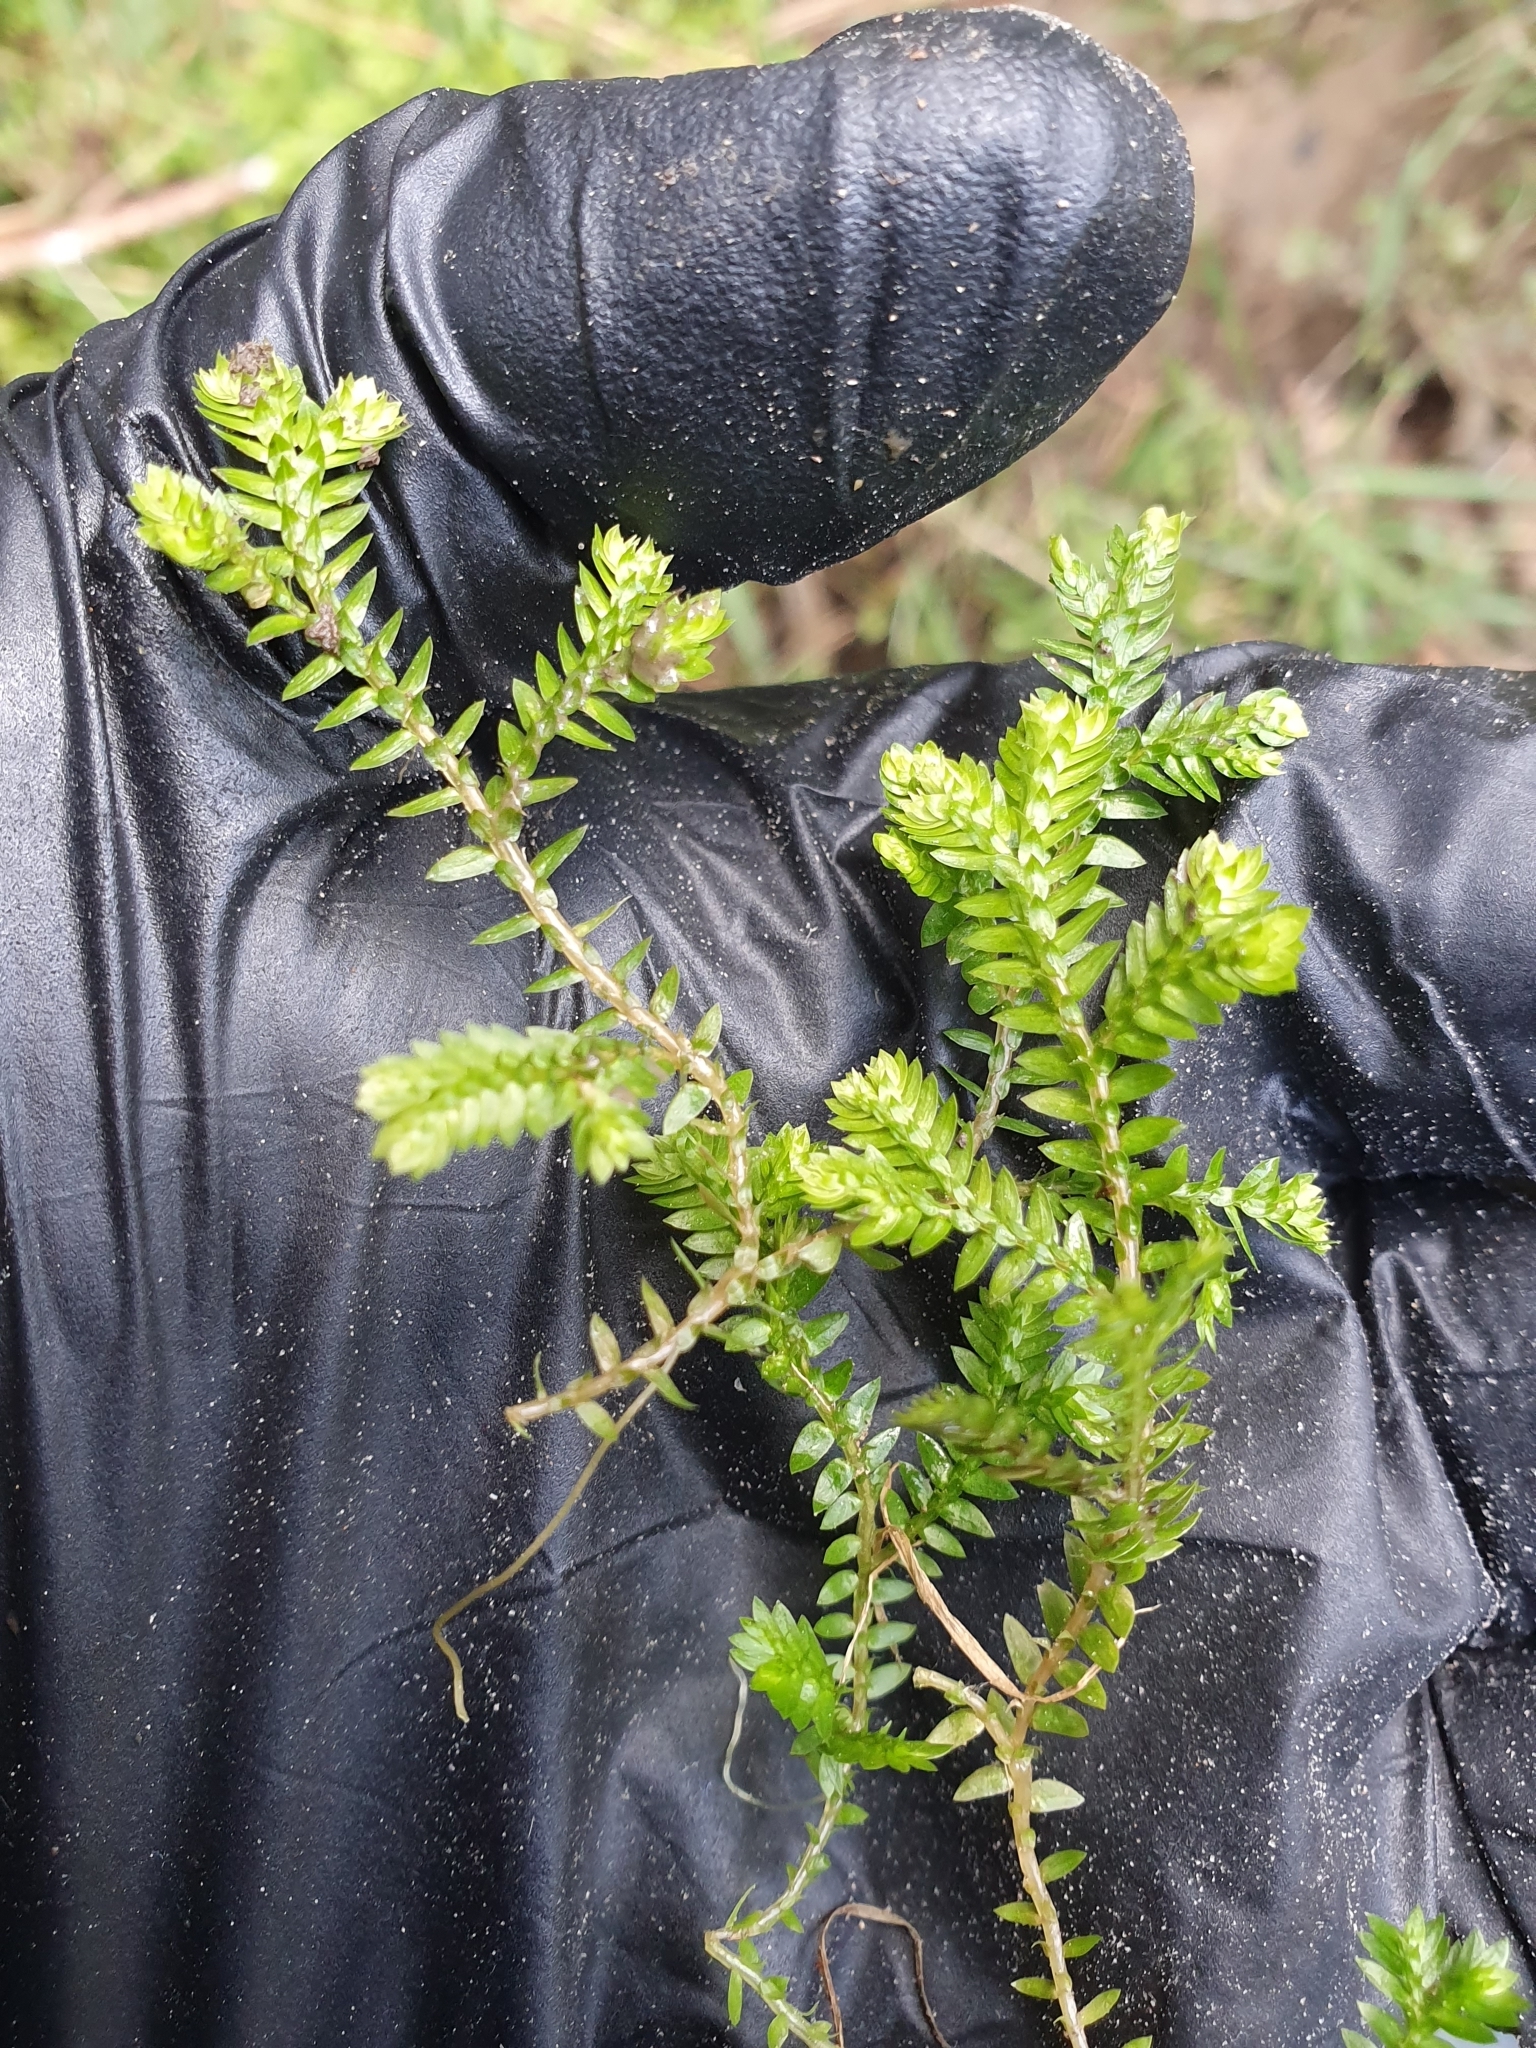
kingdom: Plantae
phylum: Tracheophyta
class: Lycopodiopsida
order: Selaginellales
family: Selaginellaceae
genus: Selaginella
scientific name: Selaginella kraussiana
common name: Krauss' spikemoss
